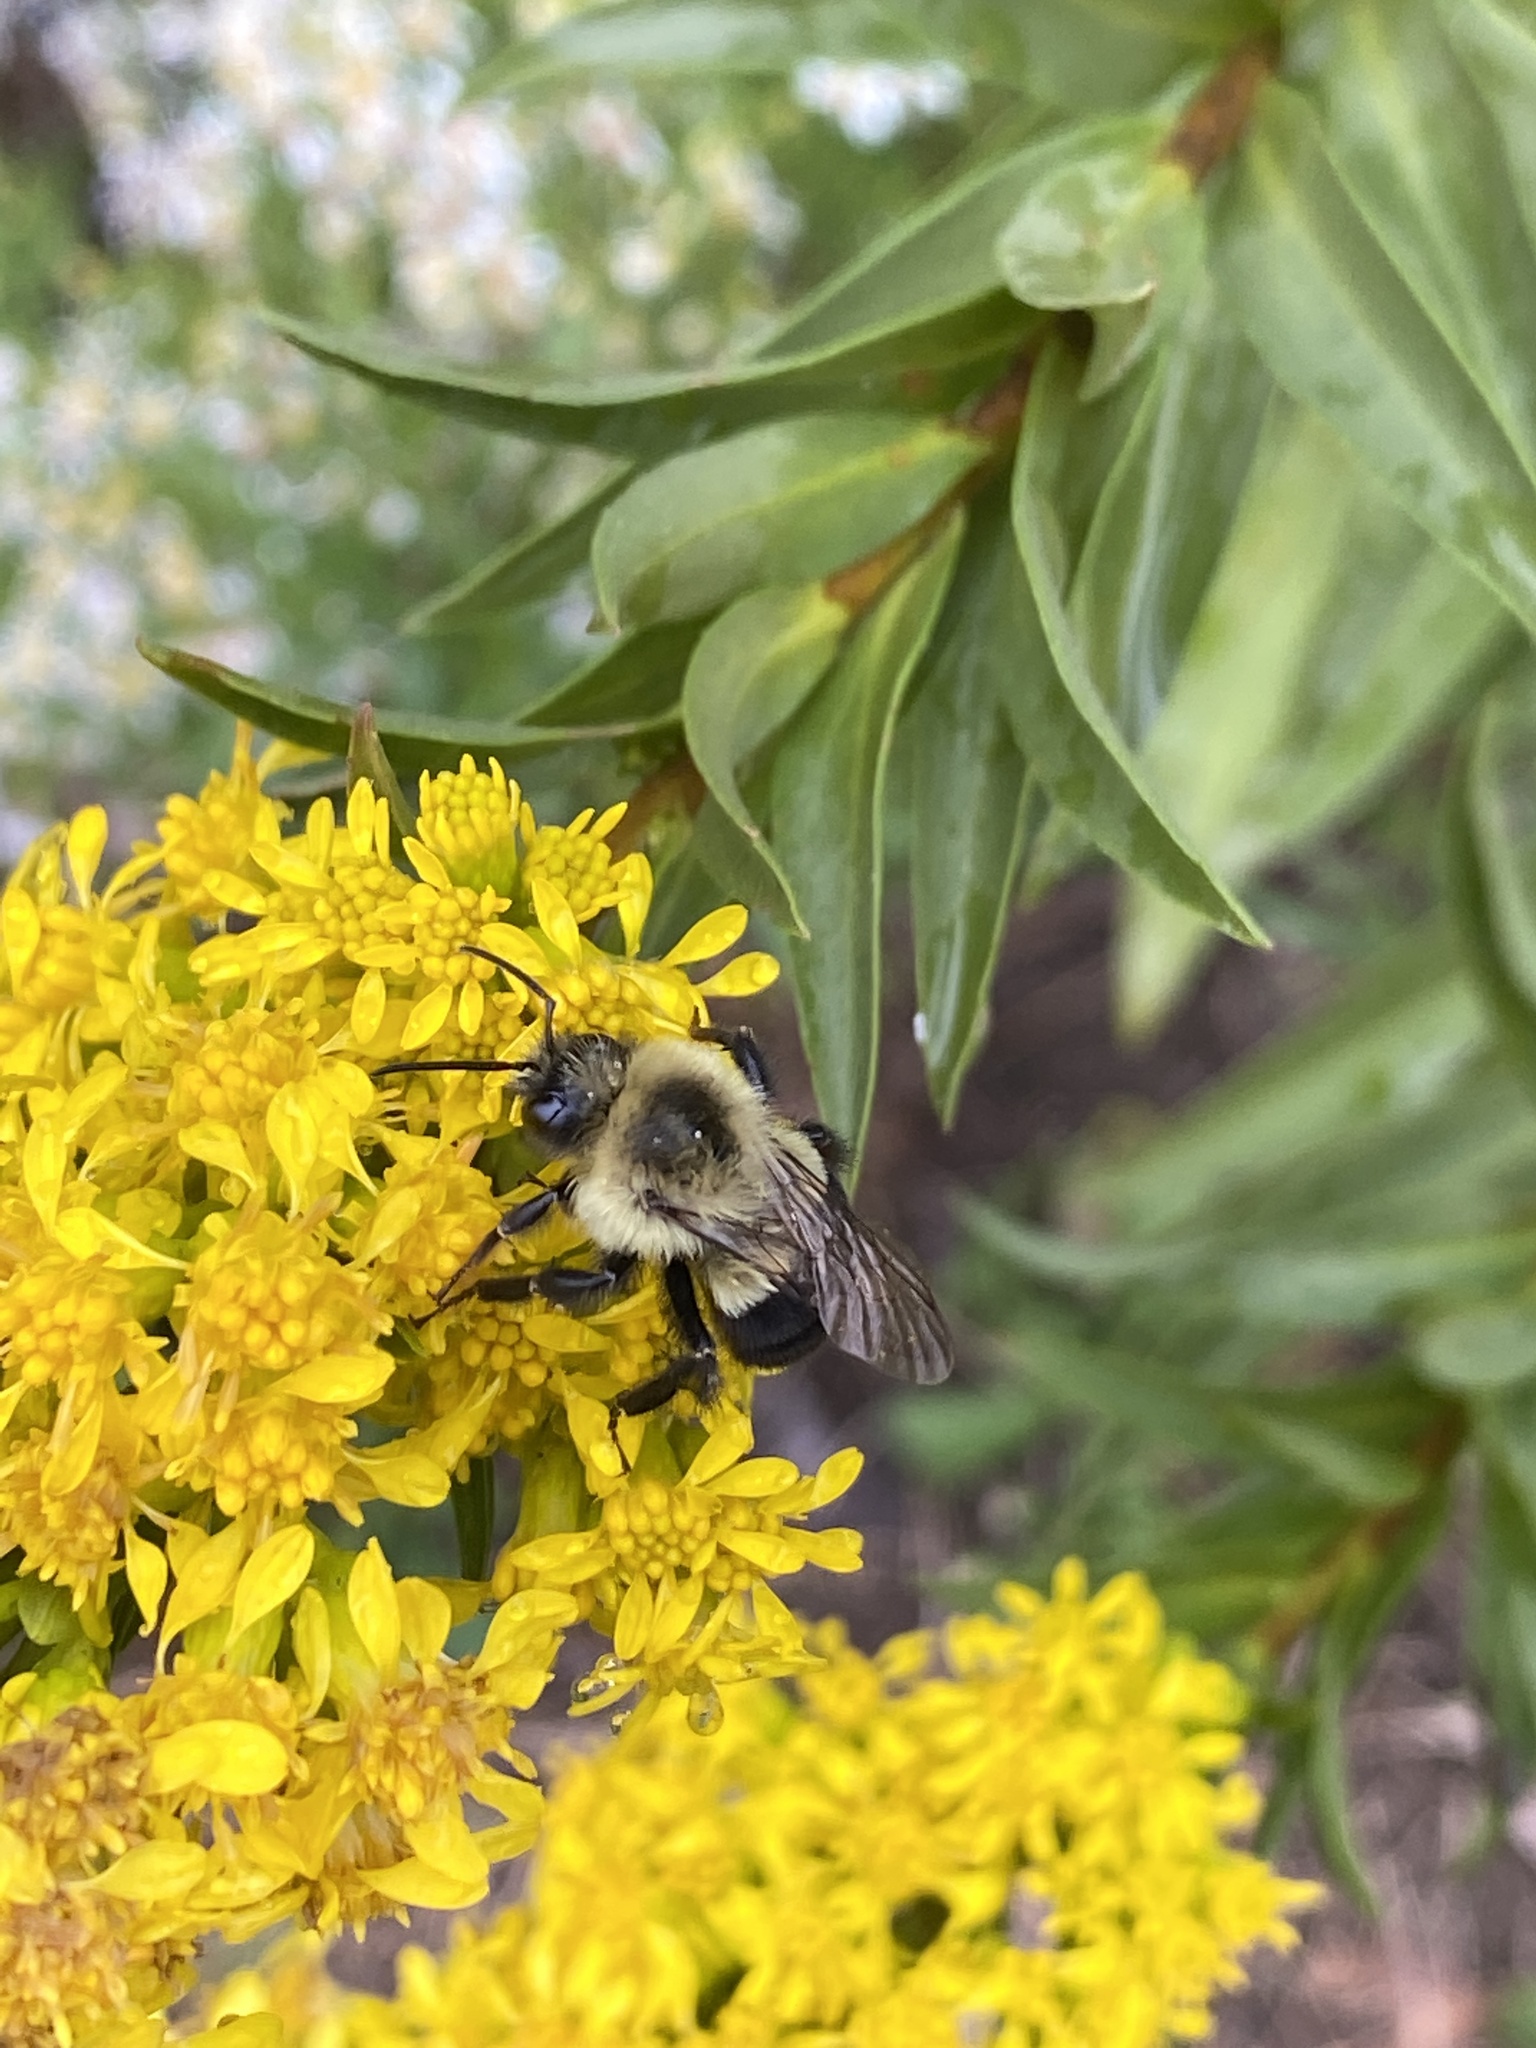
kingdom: Animalia
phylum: Arthropoda
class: Insecta
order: Hymenoptera
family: Apidae
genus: Bombus
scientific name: Bombus impatiens
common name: Common eastern bumble bee
